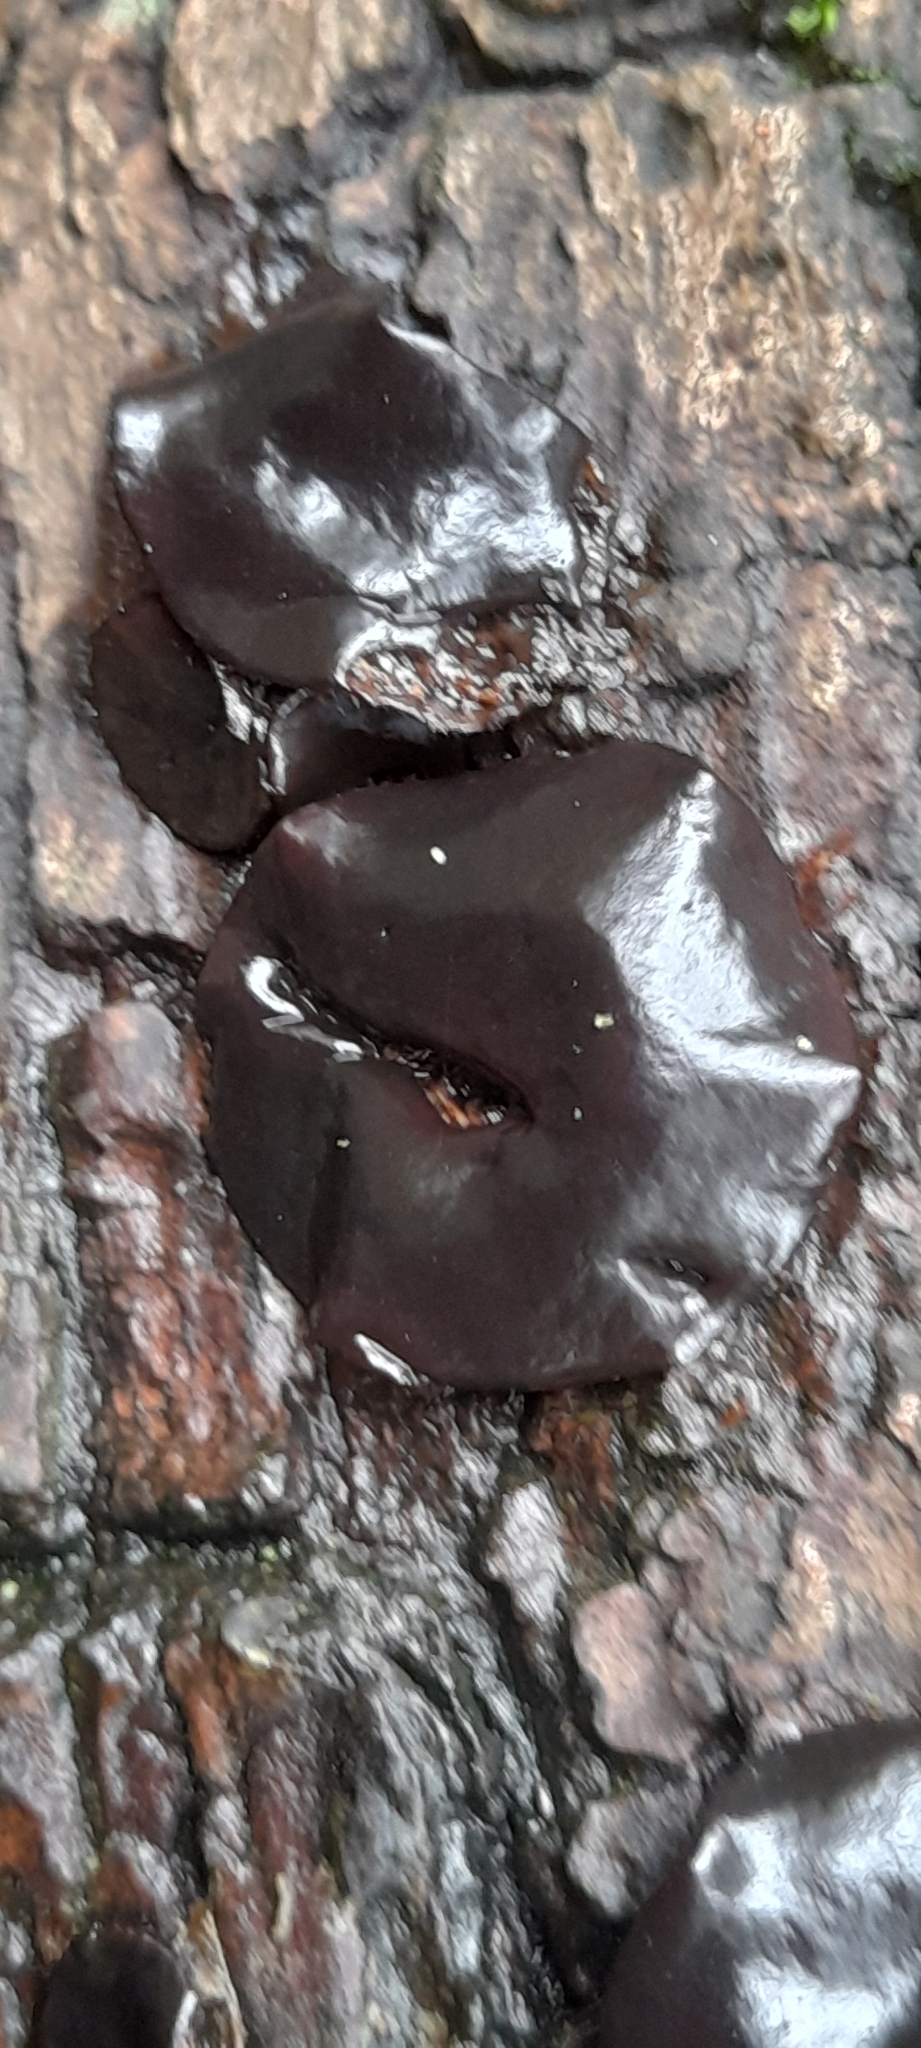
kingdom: Fungi
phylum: Ascomycota
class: Leotiomycetes
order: Phacidiales
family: Phacidiaceae
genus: Bulgaria
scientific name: Bulgaria inquinans
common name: Black bulgar
